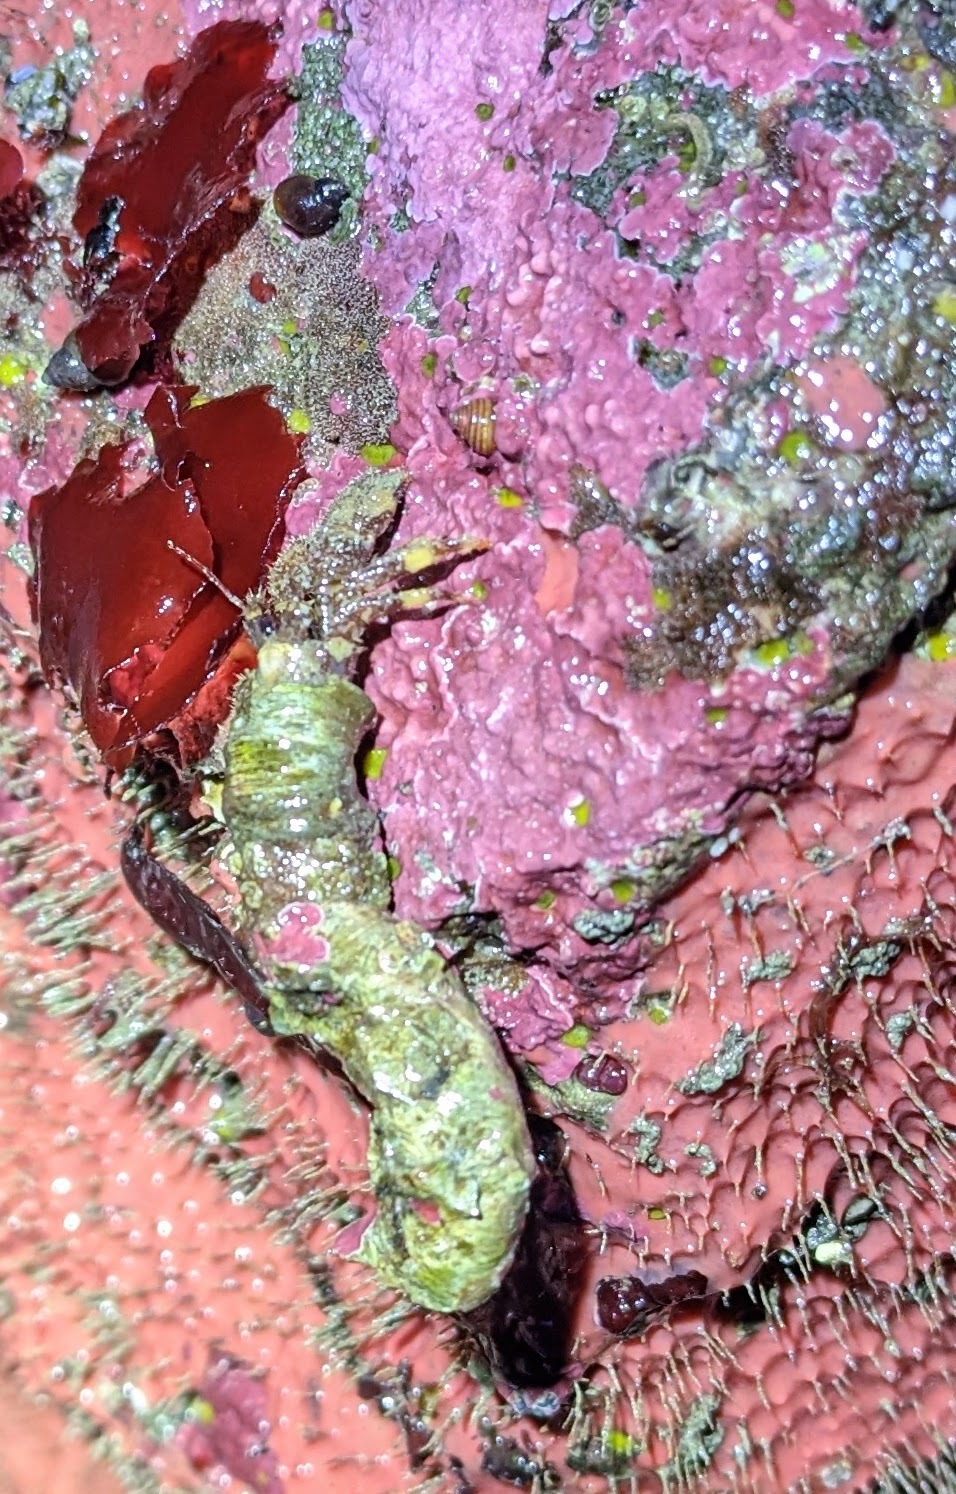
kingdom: Animalia
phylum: Arthropoda
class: Malacostraca
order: Decapoda
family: Paguridae
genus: Discorsopagurus
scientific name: Discorsopagurus schmitti
